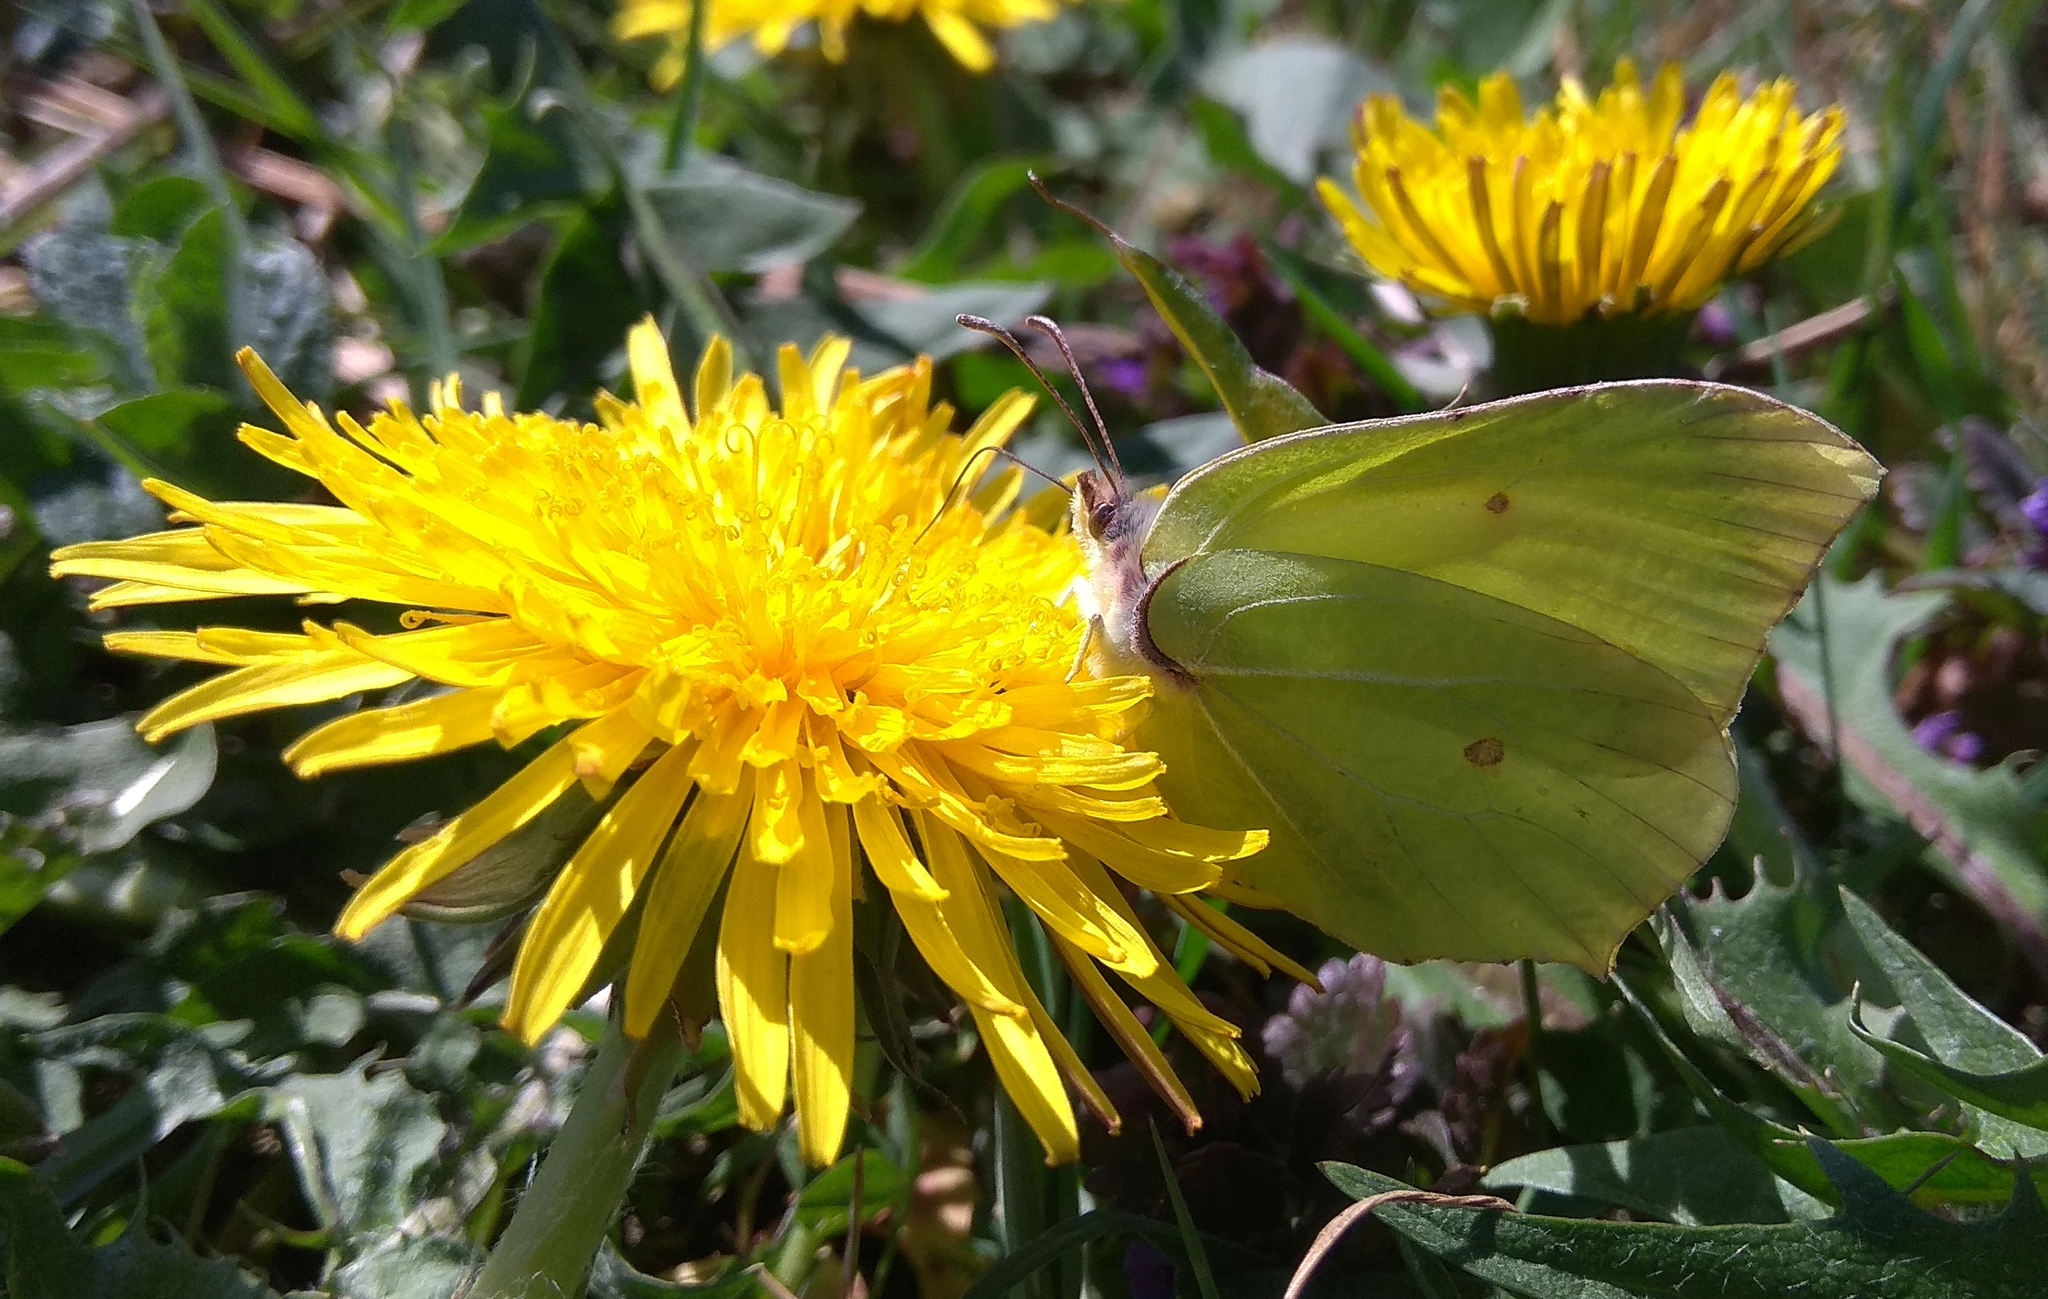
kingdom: Animalia
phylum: Arthropoda
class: Insecta
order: Lepidoptera
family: Pieridae
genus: Gonepteryx
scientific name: Gonepteryx rhamni
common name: Brimstone
